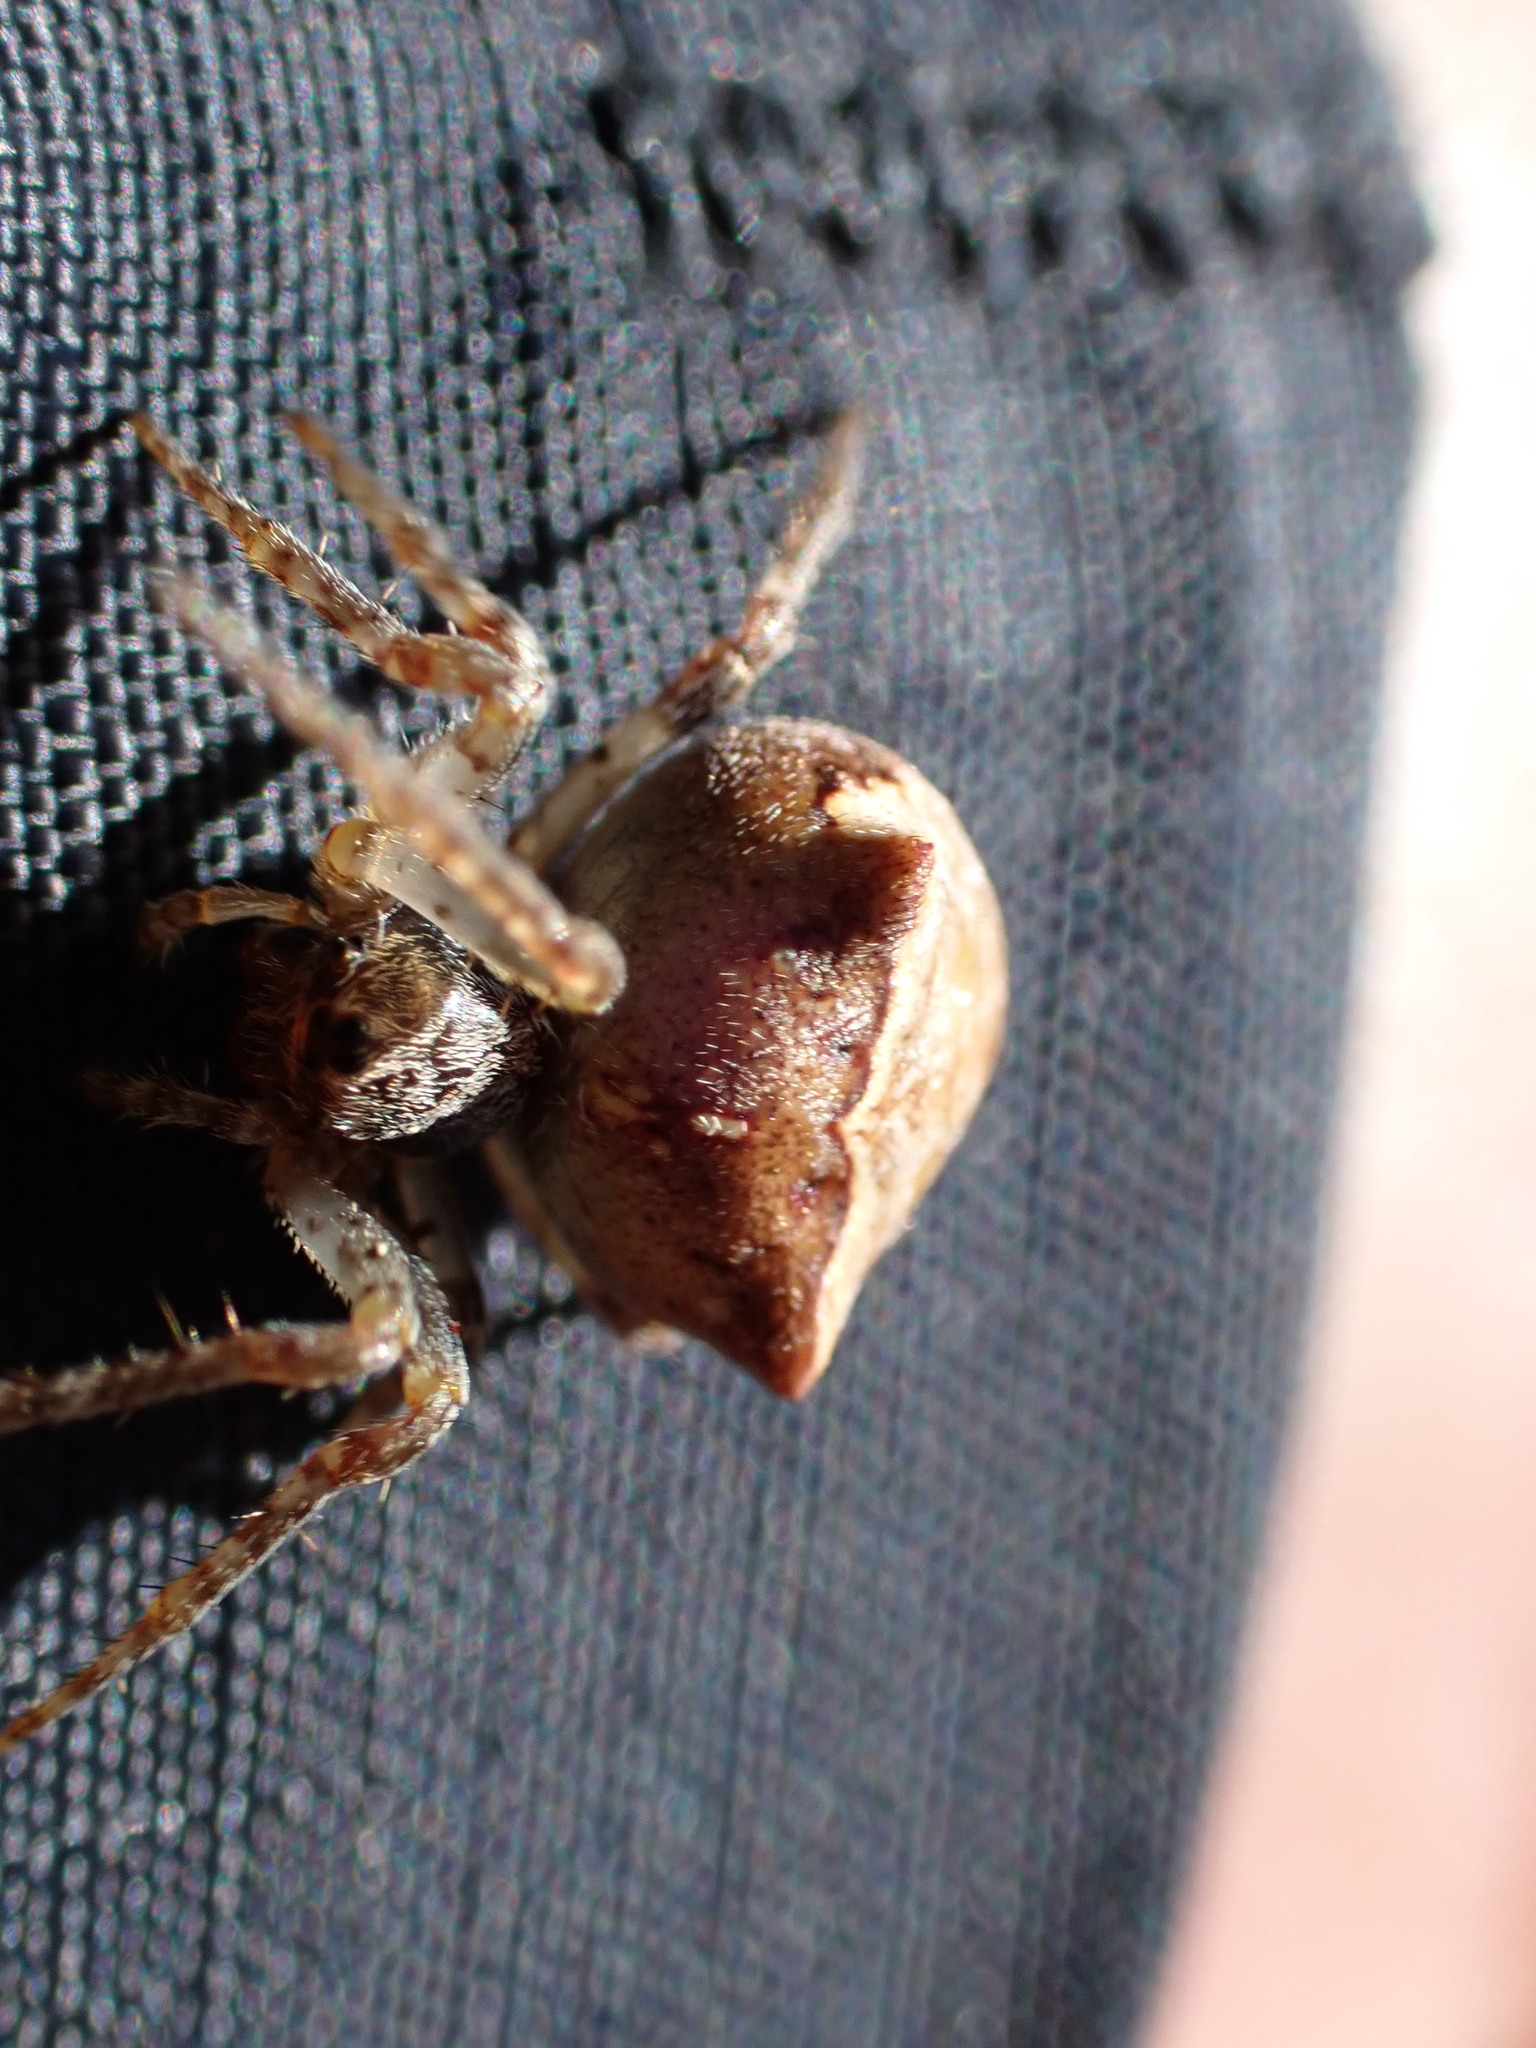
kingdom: Animalia
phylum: Arthropoda
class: Arachnida
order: Araneae
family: Araneidae
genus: Gibbaranea
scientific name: Gibbaranea bituberculata
